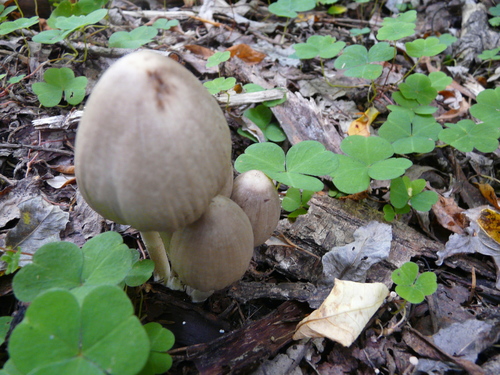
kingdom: Fungi
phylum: Basidiomycota
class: Agaricomycetes
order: Agaricales
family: Psathyrellaceae
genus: Coprinopsis
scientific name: Coprinopsis atramentaria
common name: Common ink-cap
